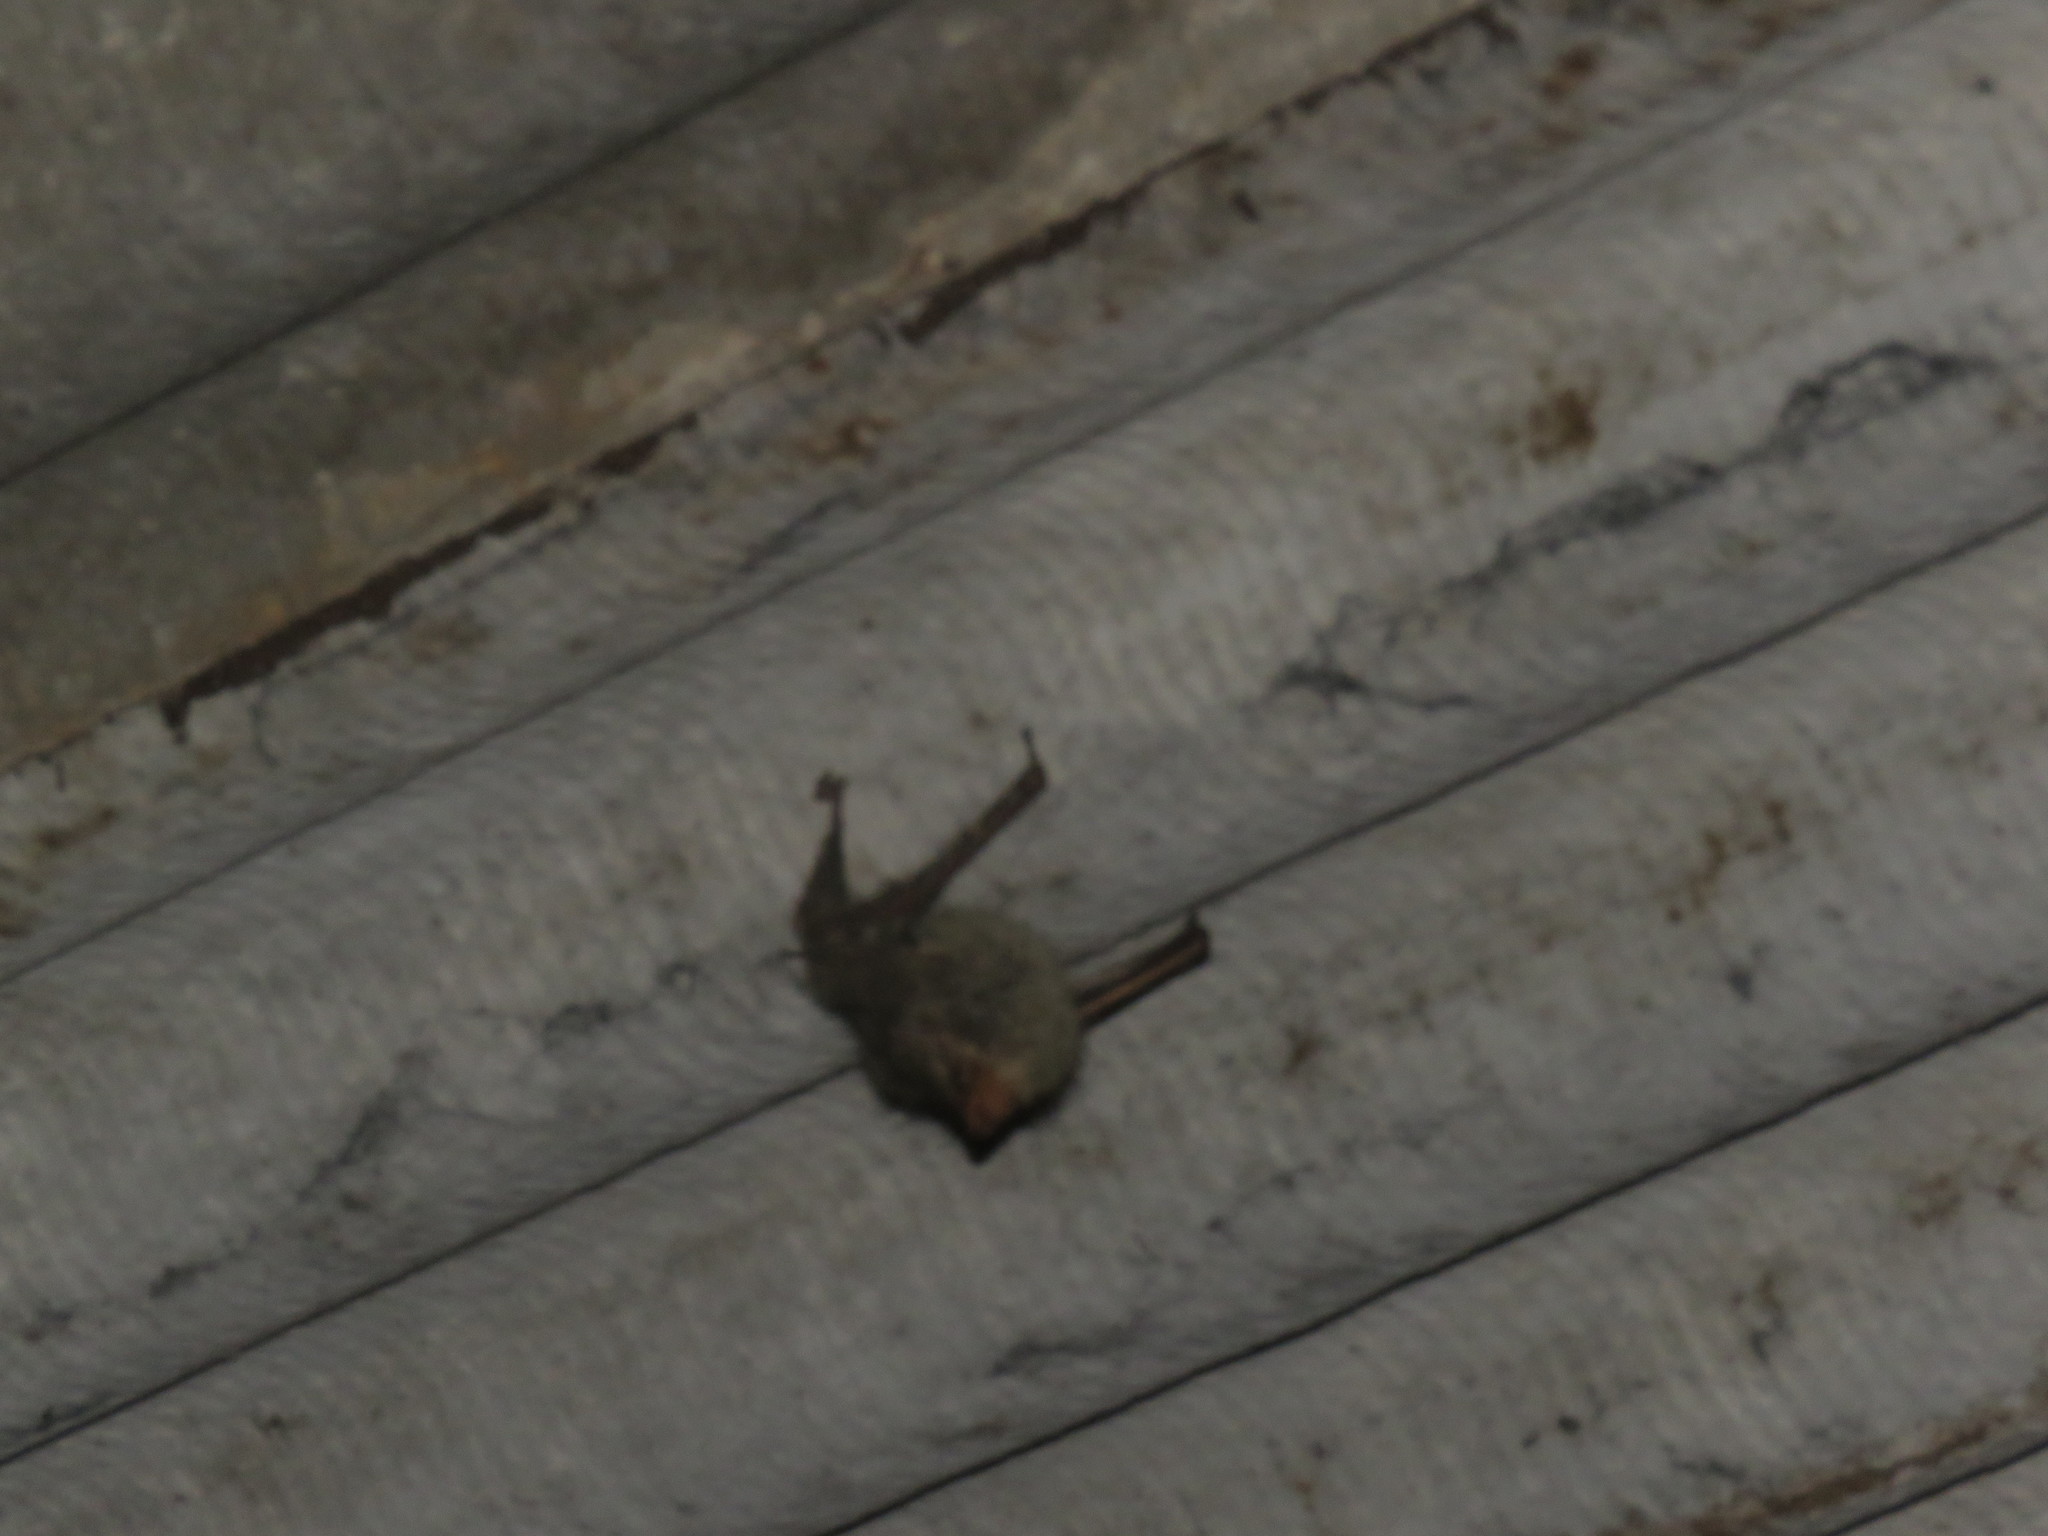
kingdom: Animalia
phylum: Chordata
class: Mammalia
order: Chiroptera
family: Emballonuridae
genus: Rhynchonycteris
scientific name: Rhynchonycteris naso
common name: Proboscis bat
